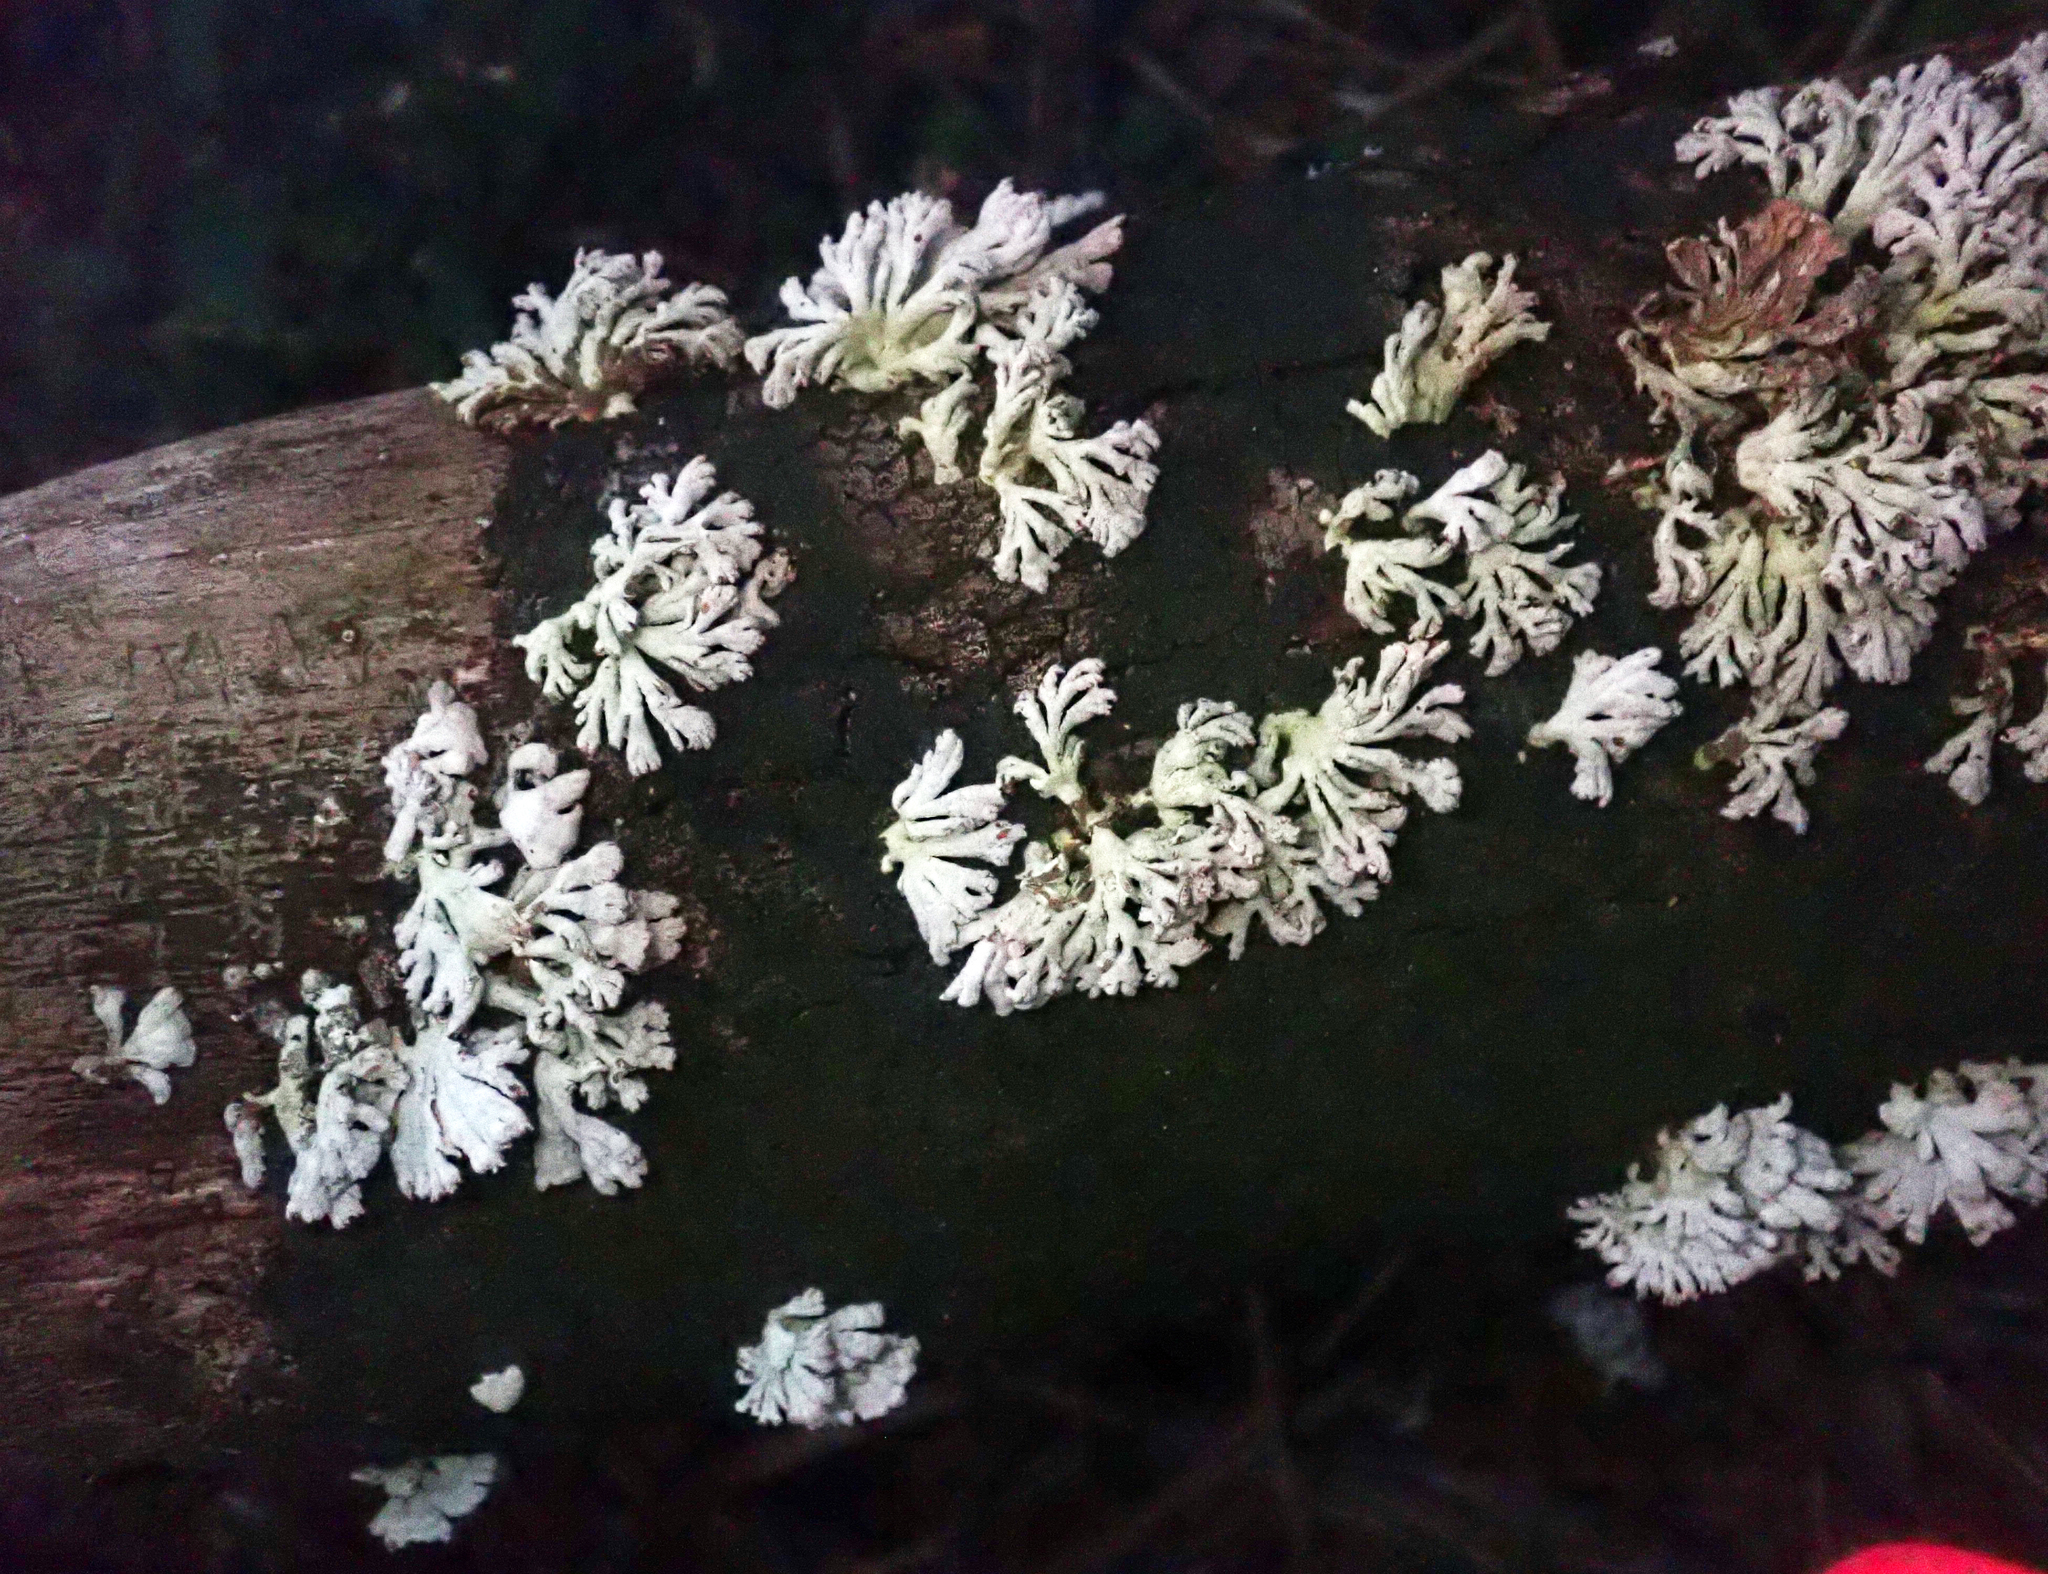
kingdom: Fungi
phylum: Basidiomycota
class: Agaricomycetes
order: Agaricales
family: Schizophyllaceae
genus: Schizophyllum
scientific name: Schizophyllum commune
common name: Common porecrust
